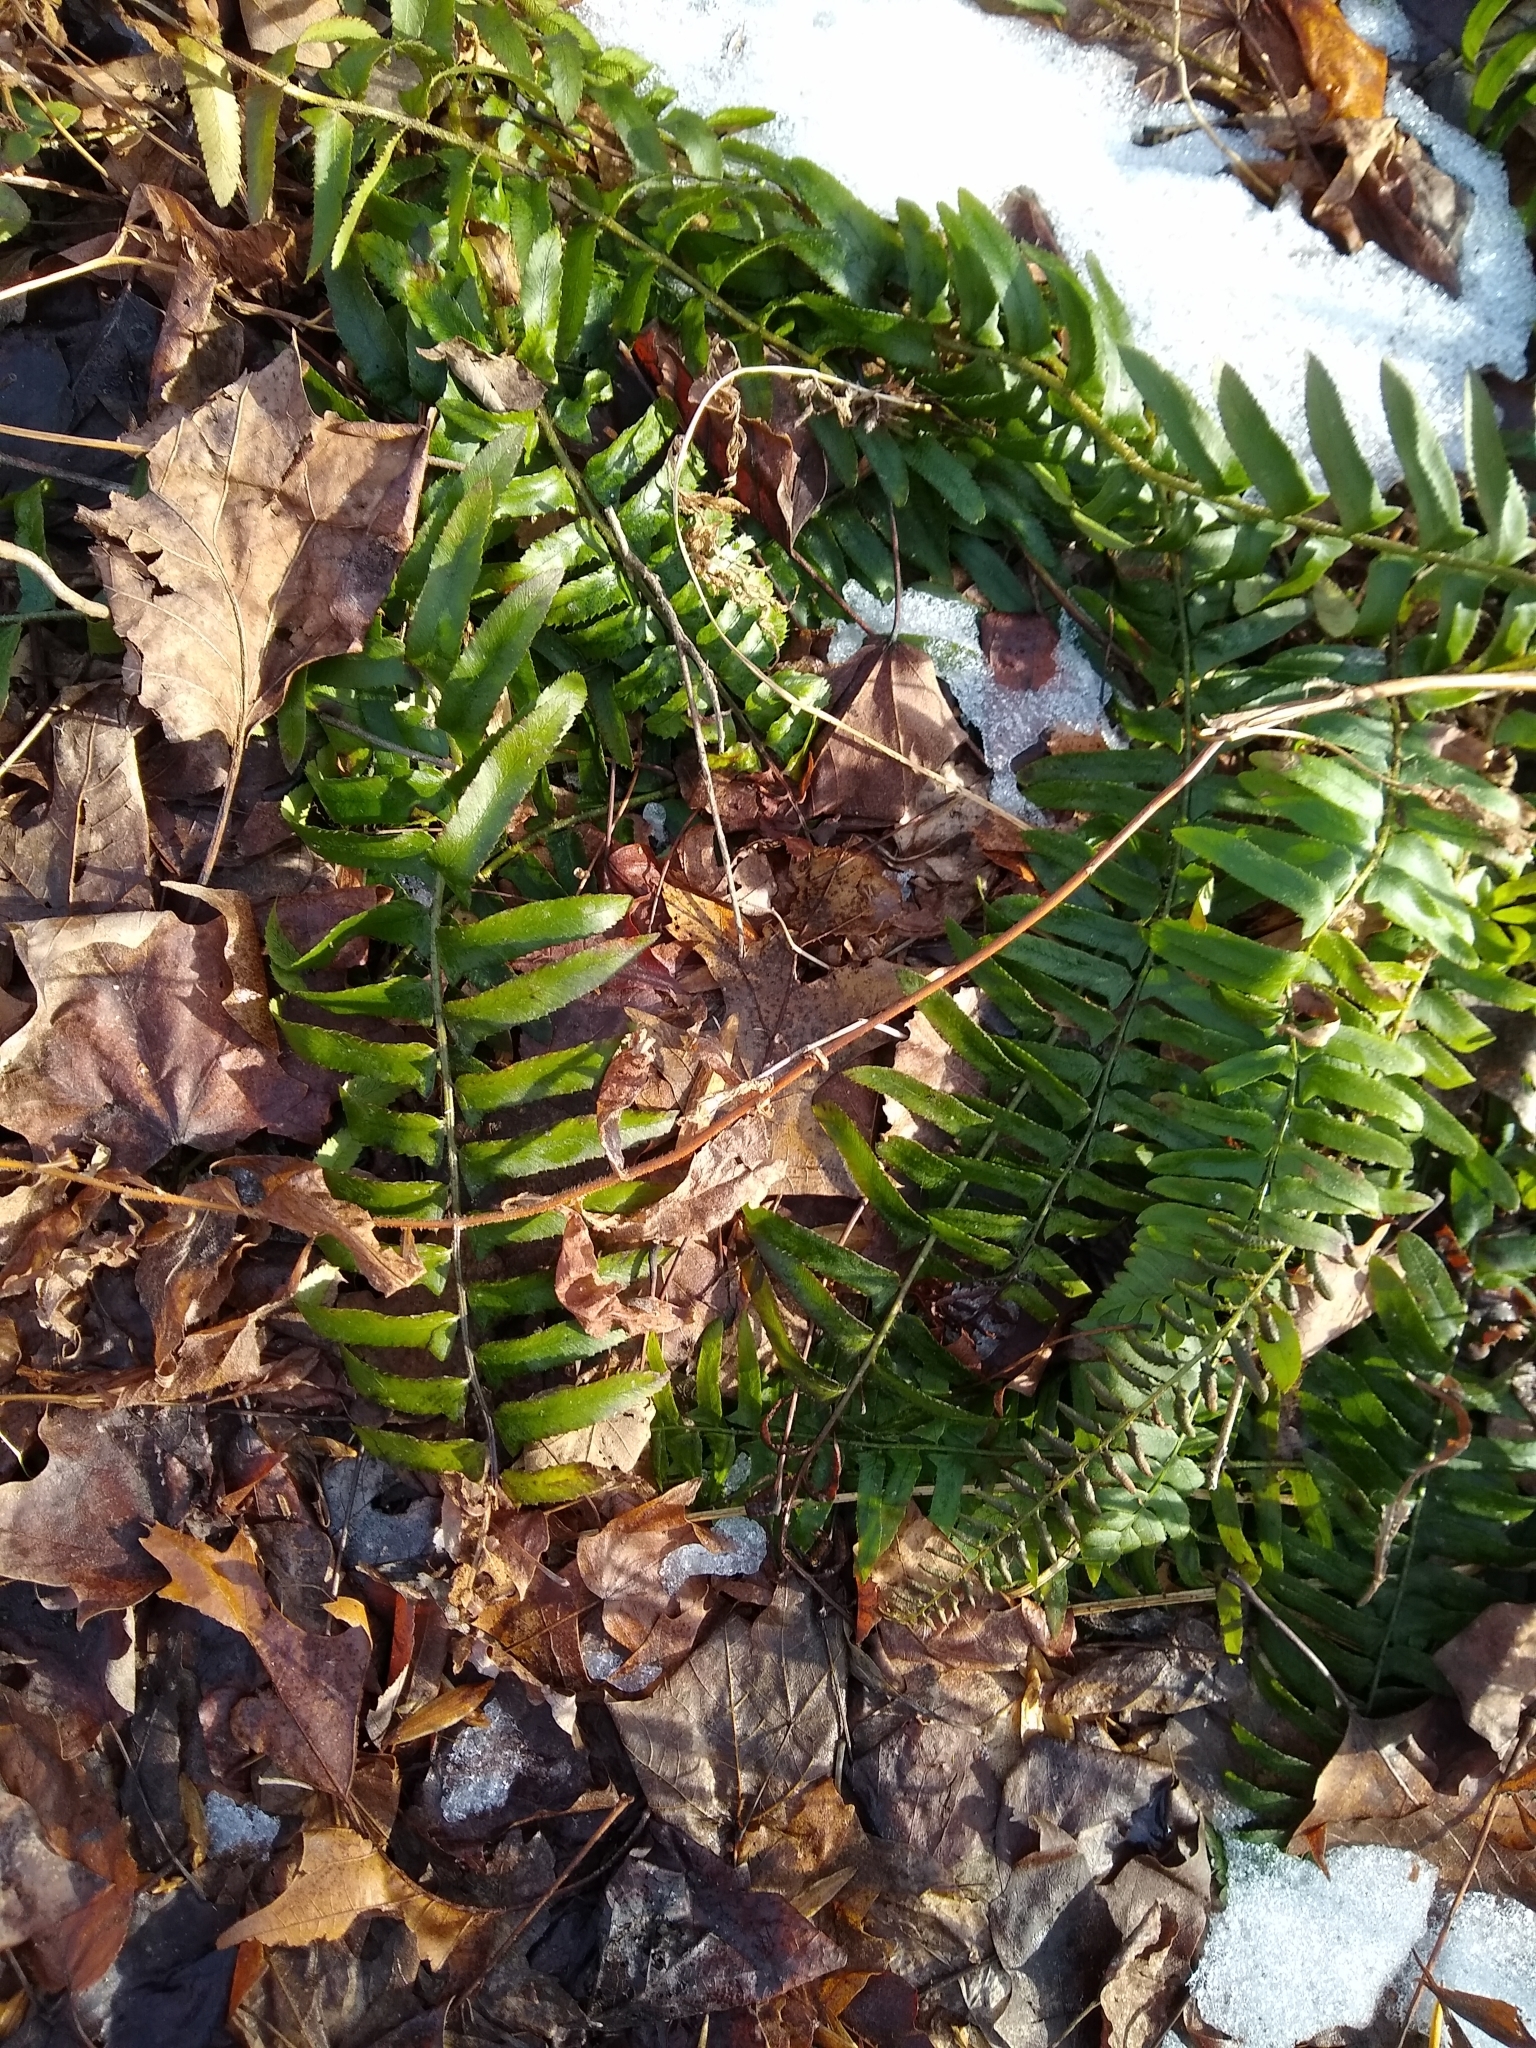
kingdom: Plantae
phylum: Tracheophyta
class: Polypodiopsida
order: Polypodiales
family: Dryopteridaceae
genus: Polystichum
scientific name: Polystichum acrostichoides
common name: Christmas fern
